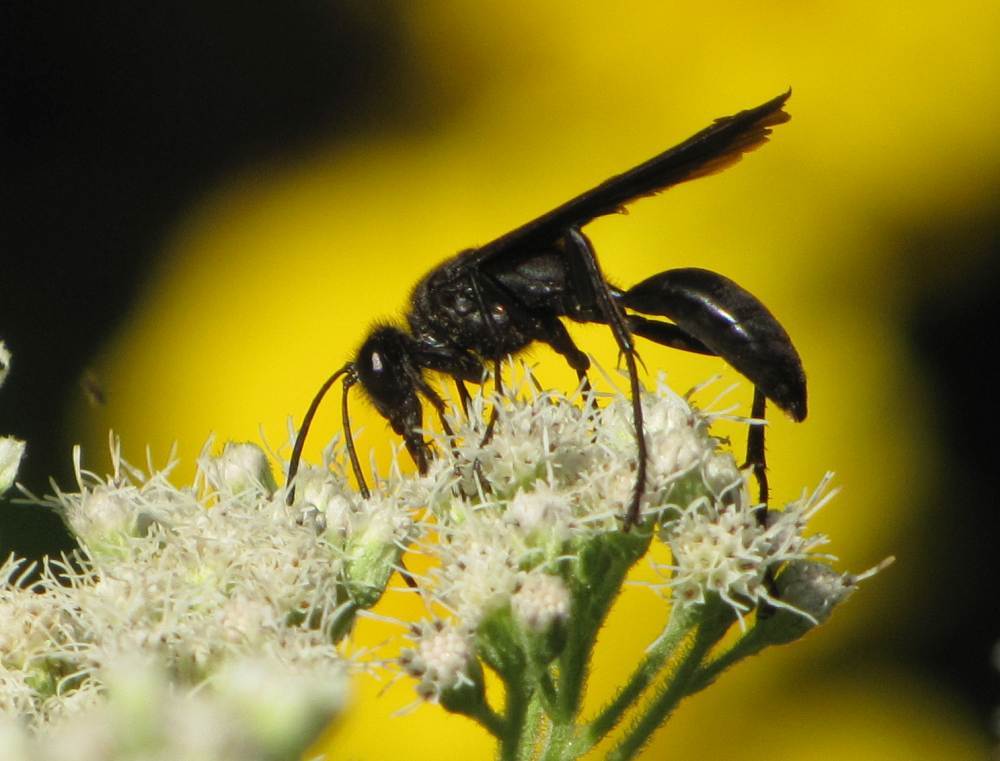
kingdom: Animalia
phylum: Arthropoda
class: Insecta
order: Hymenoptera
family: Sphecidae
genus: Sphex
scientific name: Sphex pensylvanicus
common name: Great black digger wasp
